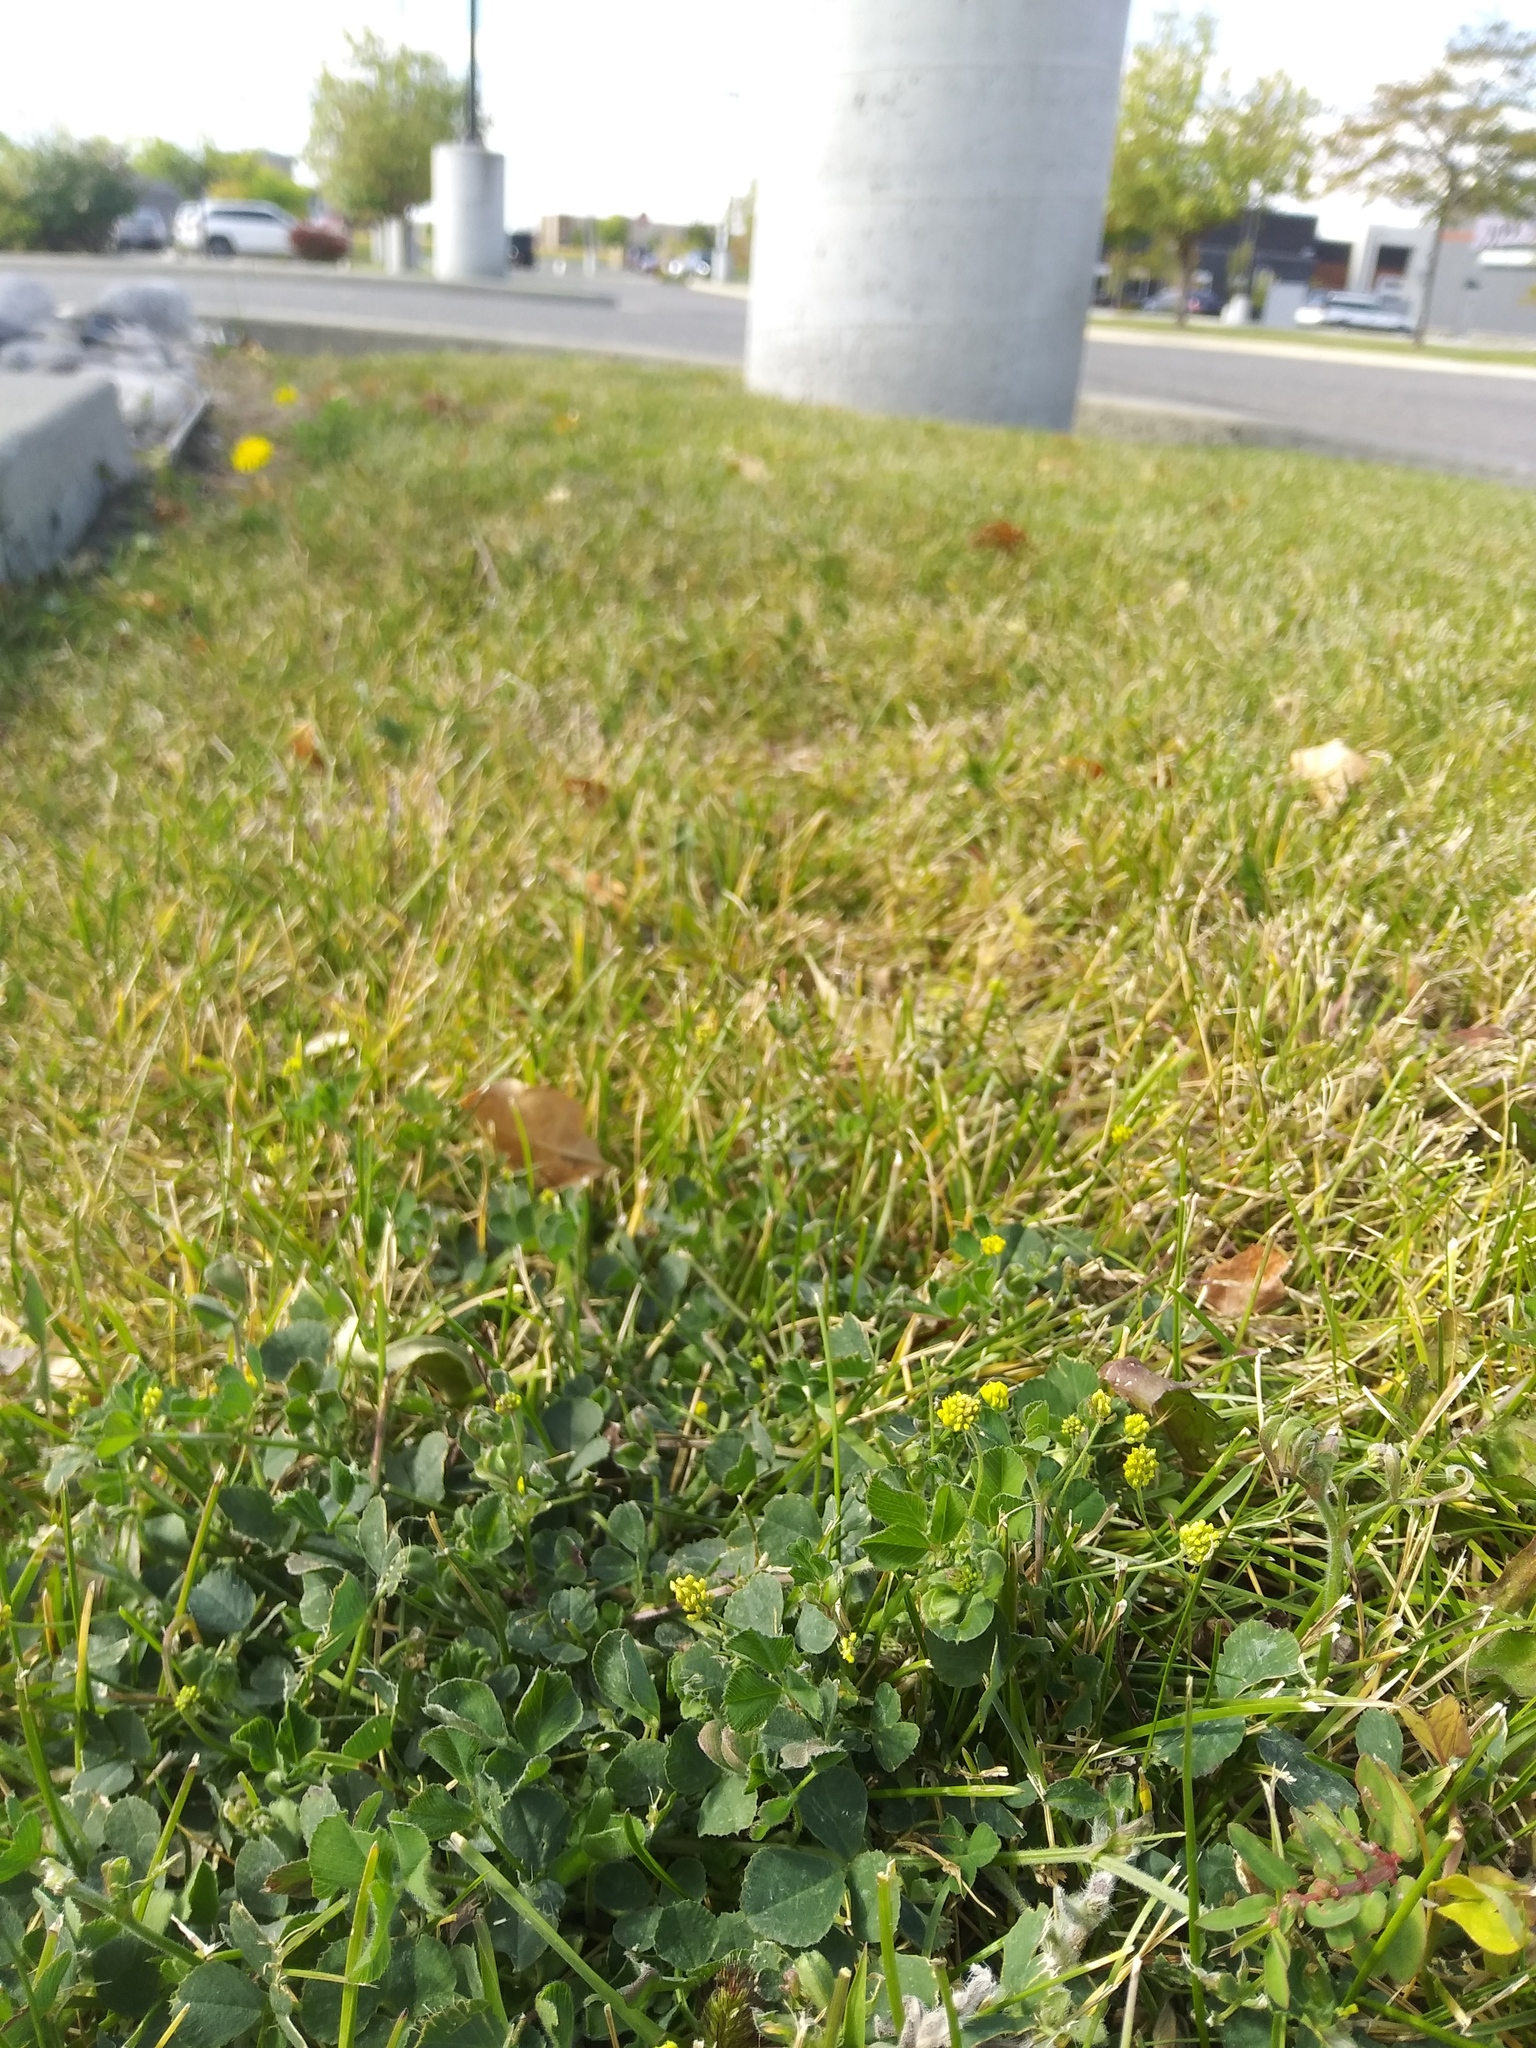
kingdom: Plantae
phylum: Tracheophyta
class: Magnoliopsida
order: Fabales
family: Fabaceae
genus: Medicago
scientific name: Medicago lupulina
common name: Black medick
